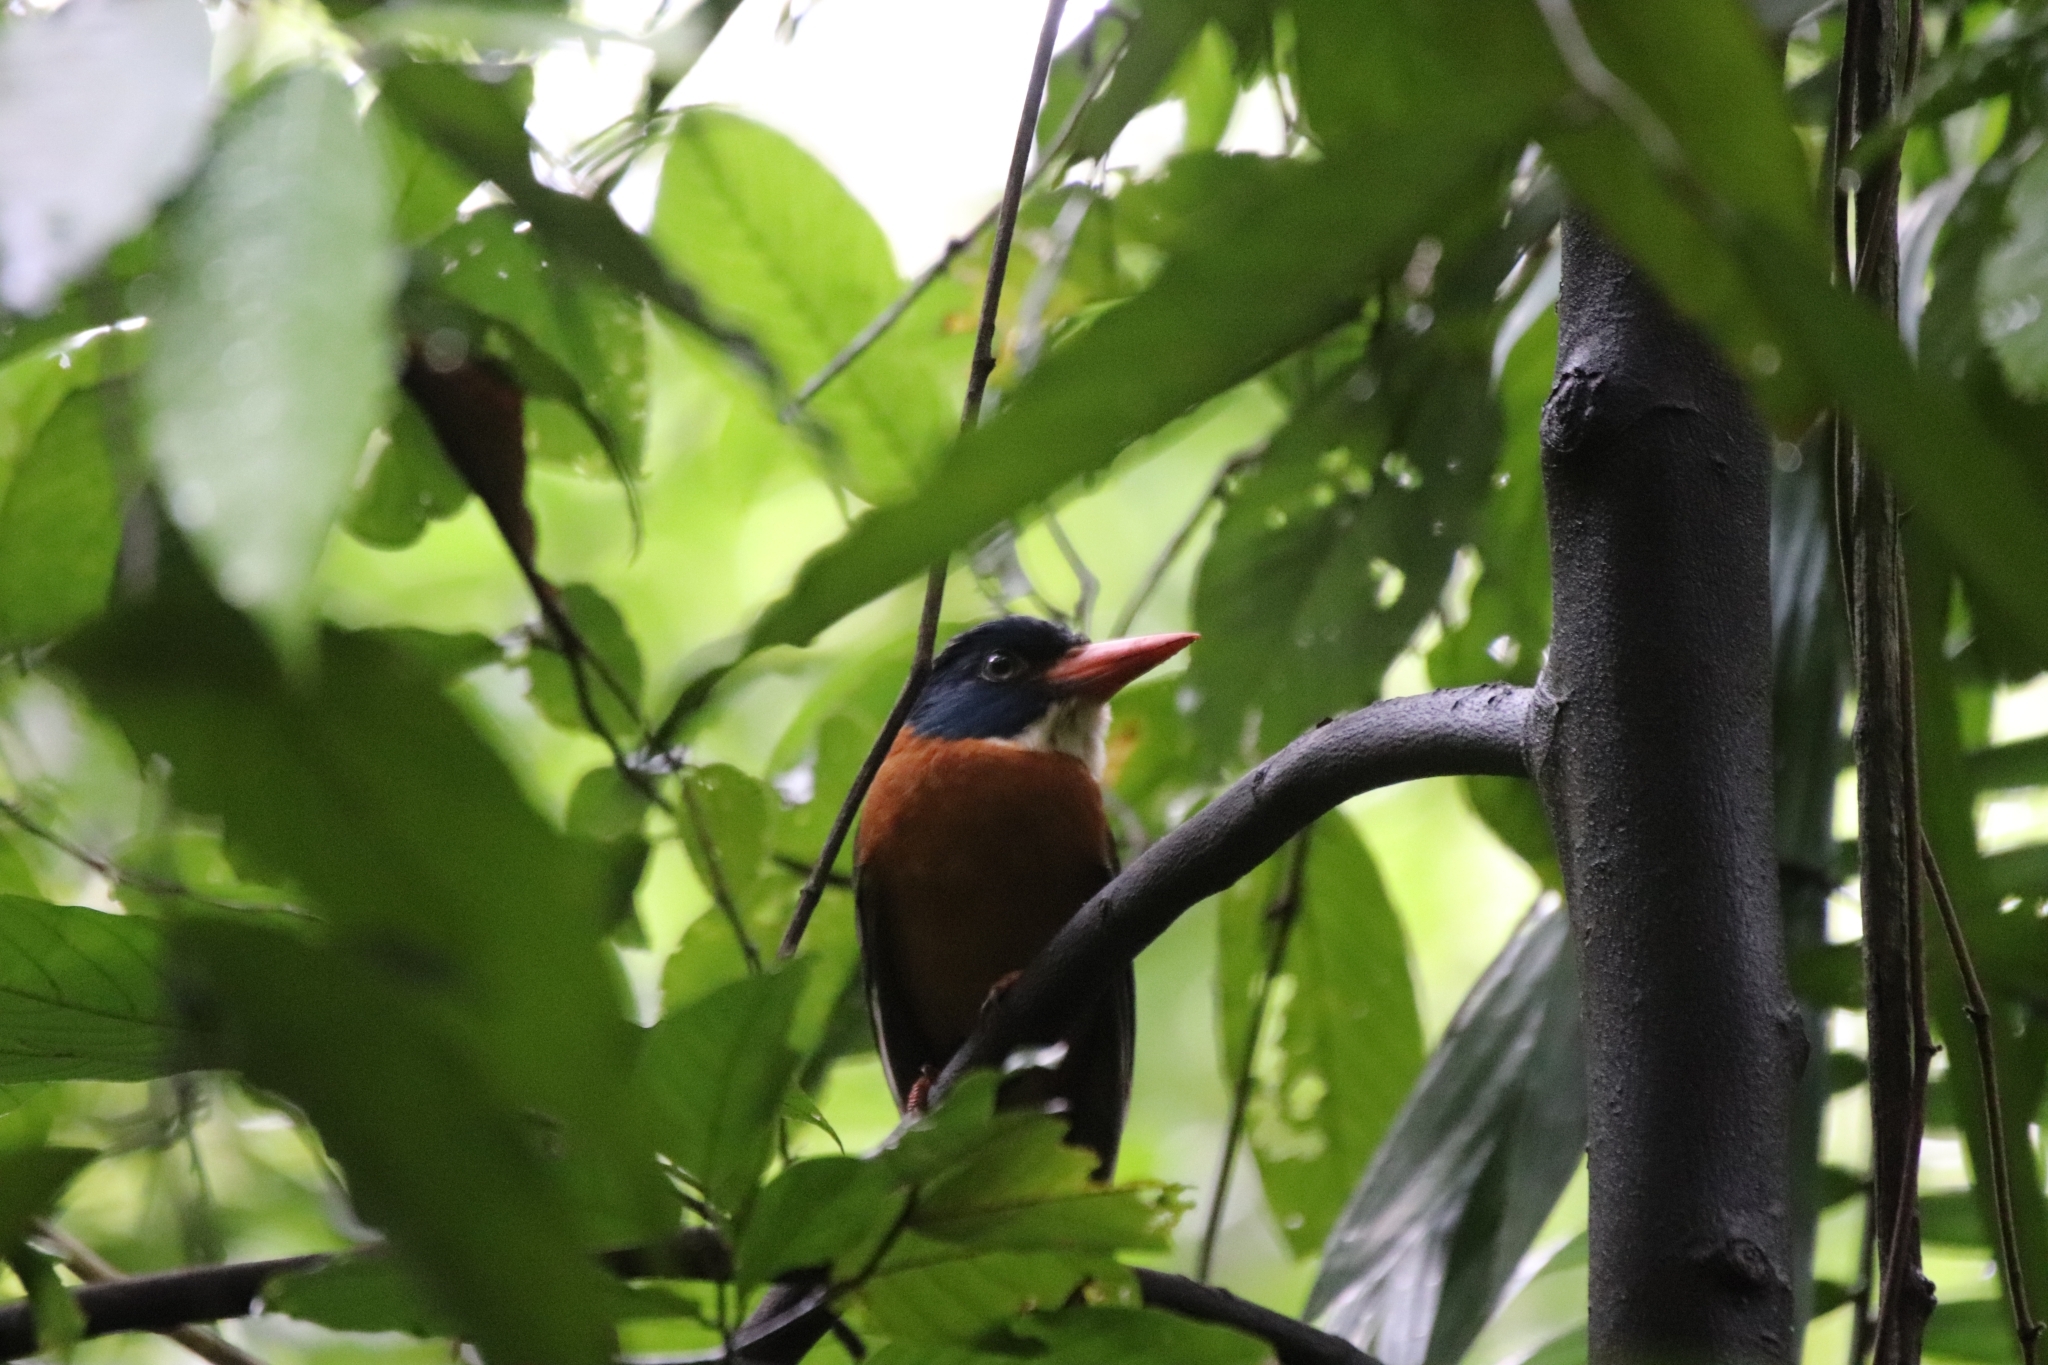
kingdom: Animalia
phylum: Chordata
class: Aves
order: Coraciiformes
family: Alcedinidae
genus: Actenoides
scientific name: Actenoides monachus
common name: Green-backed kingfisher
